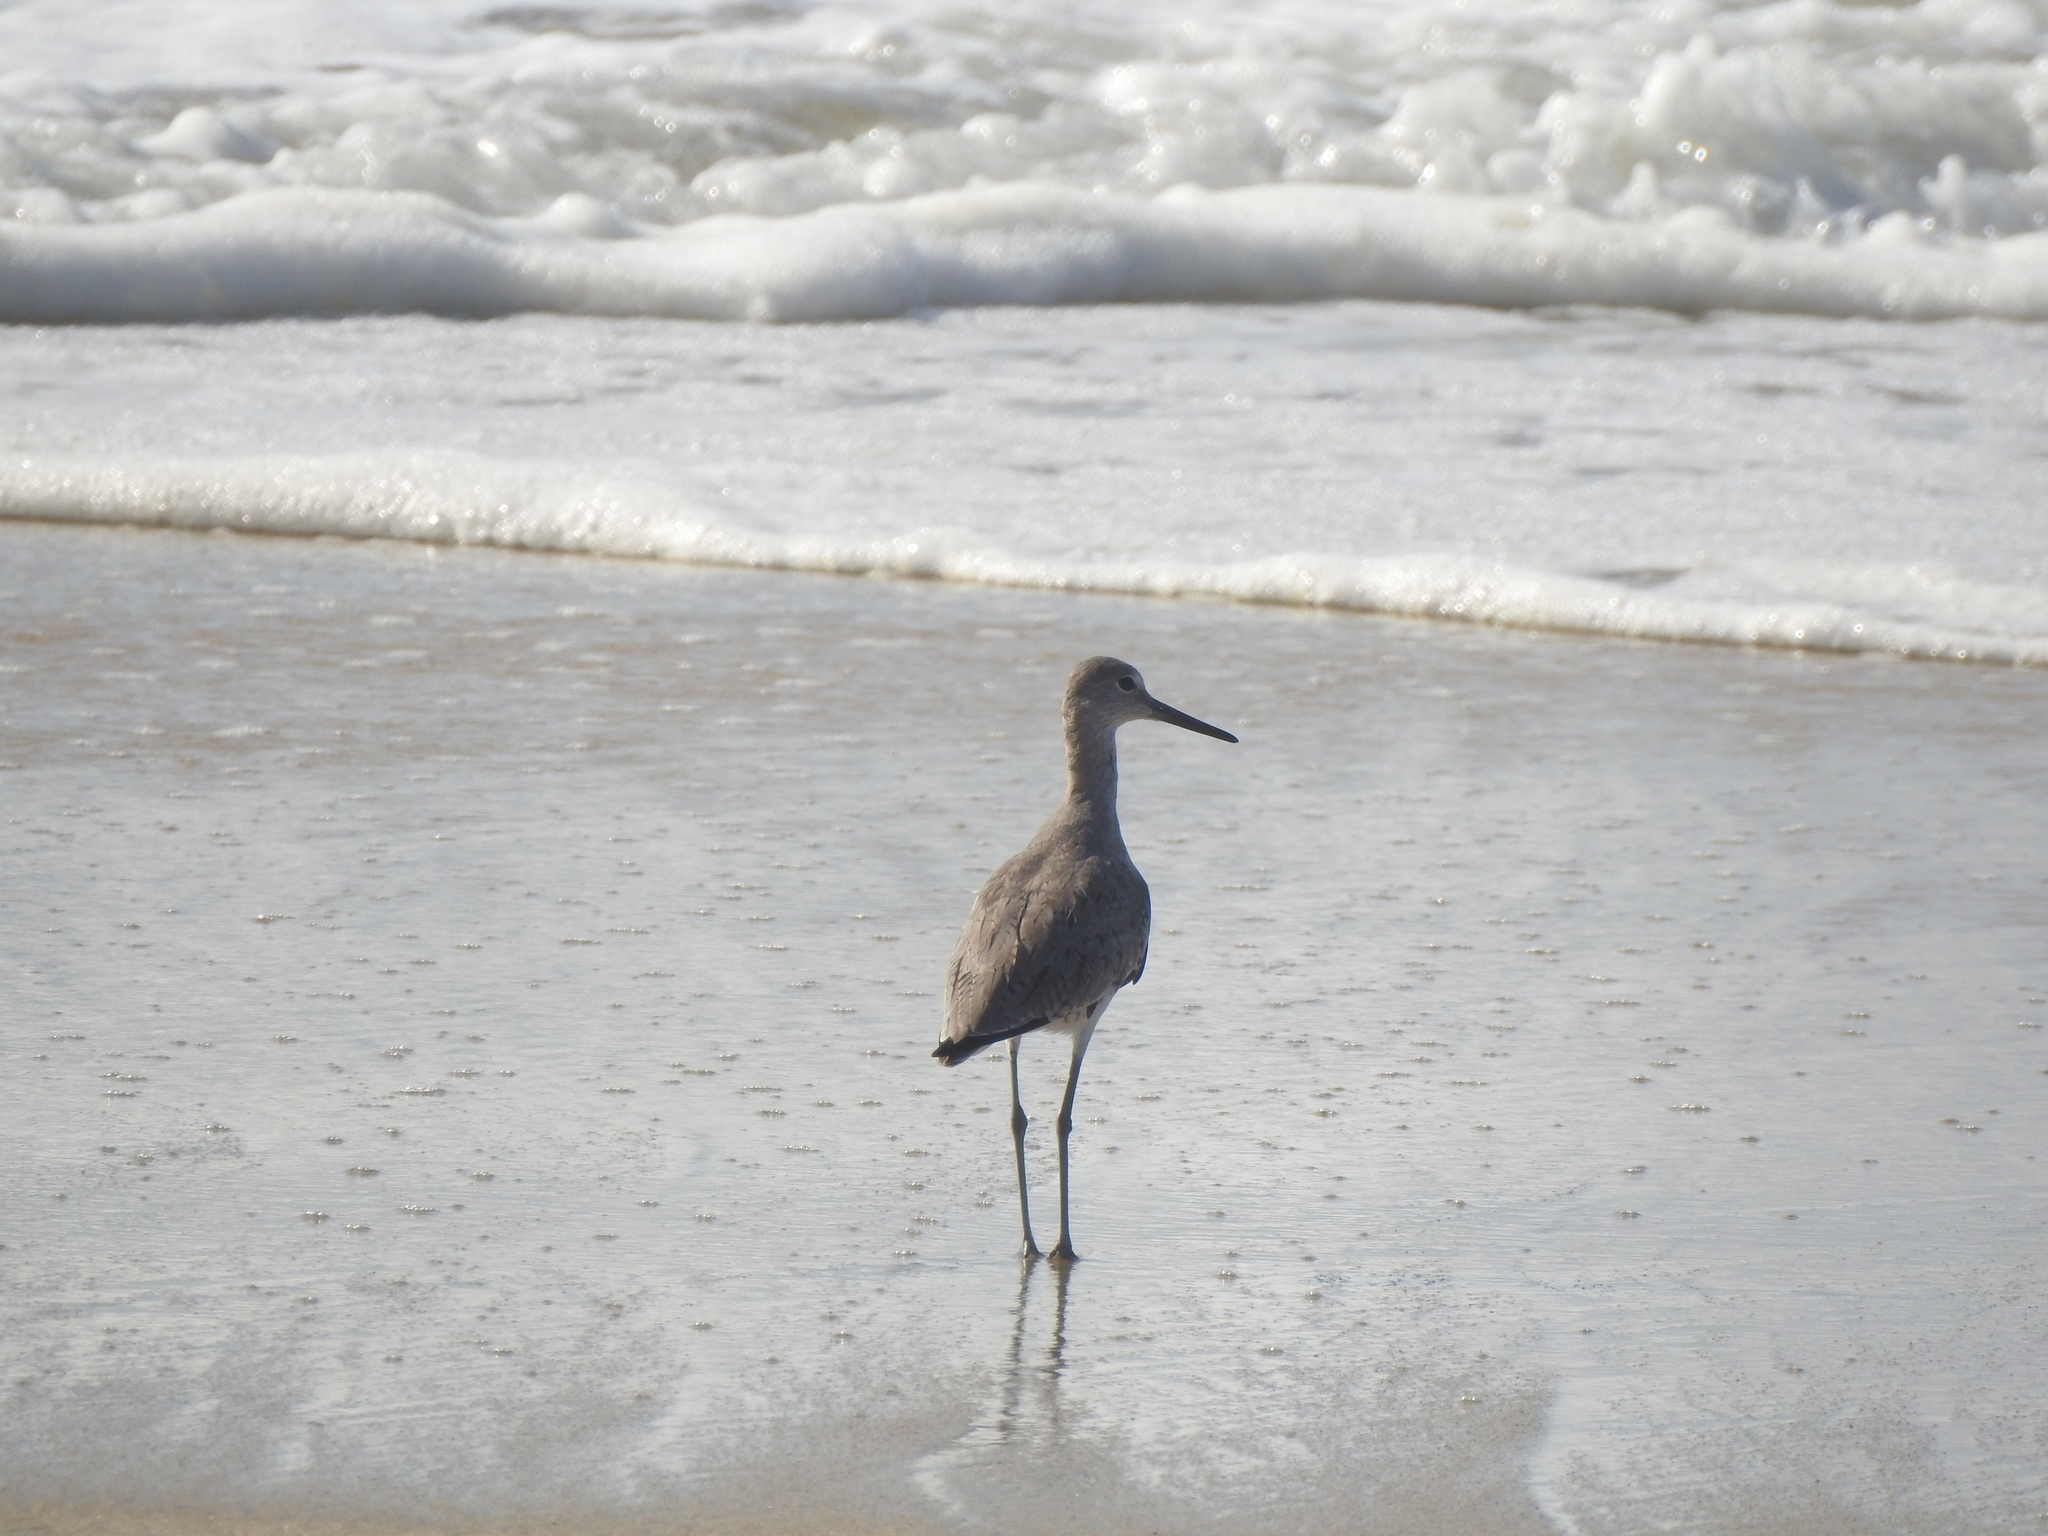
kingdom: Animalia
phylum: Chordata
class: Aves
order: Charadriiformes
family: Scolopacidae
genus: Tringa
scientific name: Tringa semipalmata
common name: Willet
